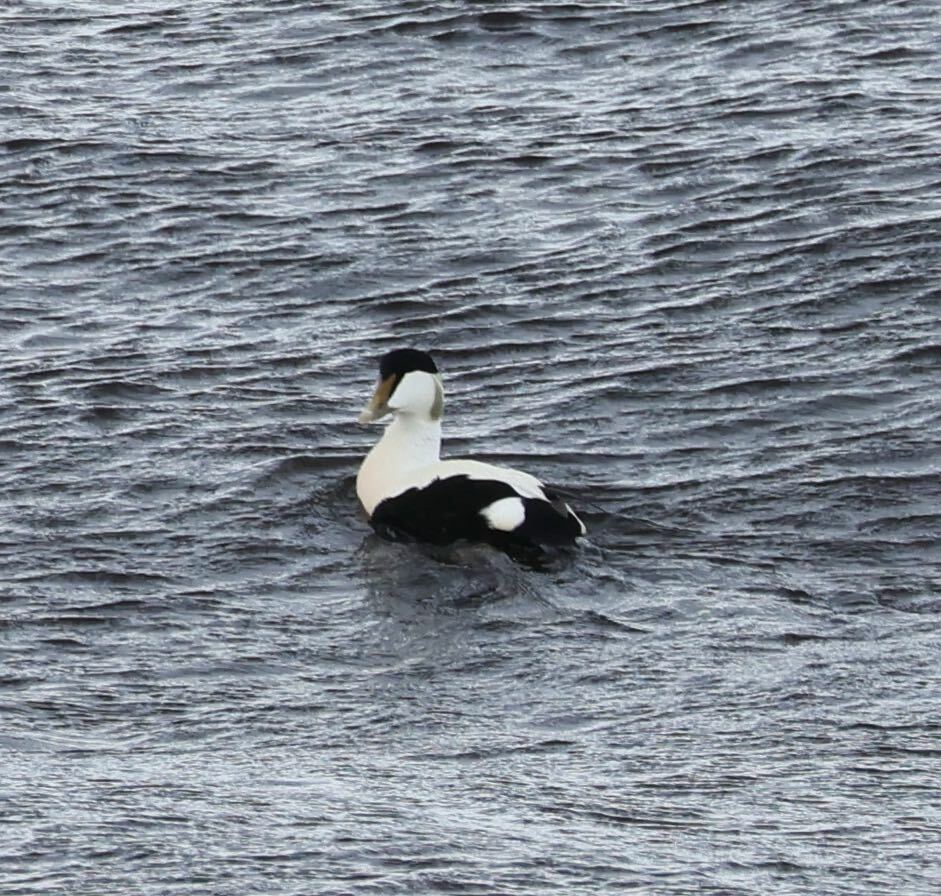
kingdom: Animalia
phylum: Chordata
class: Aves
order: Anseriformes
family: Anatidae
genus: Somateria
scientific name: Somateria mollissima
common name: Common eider
